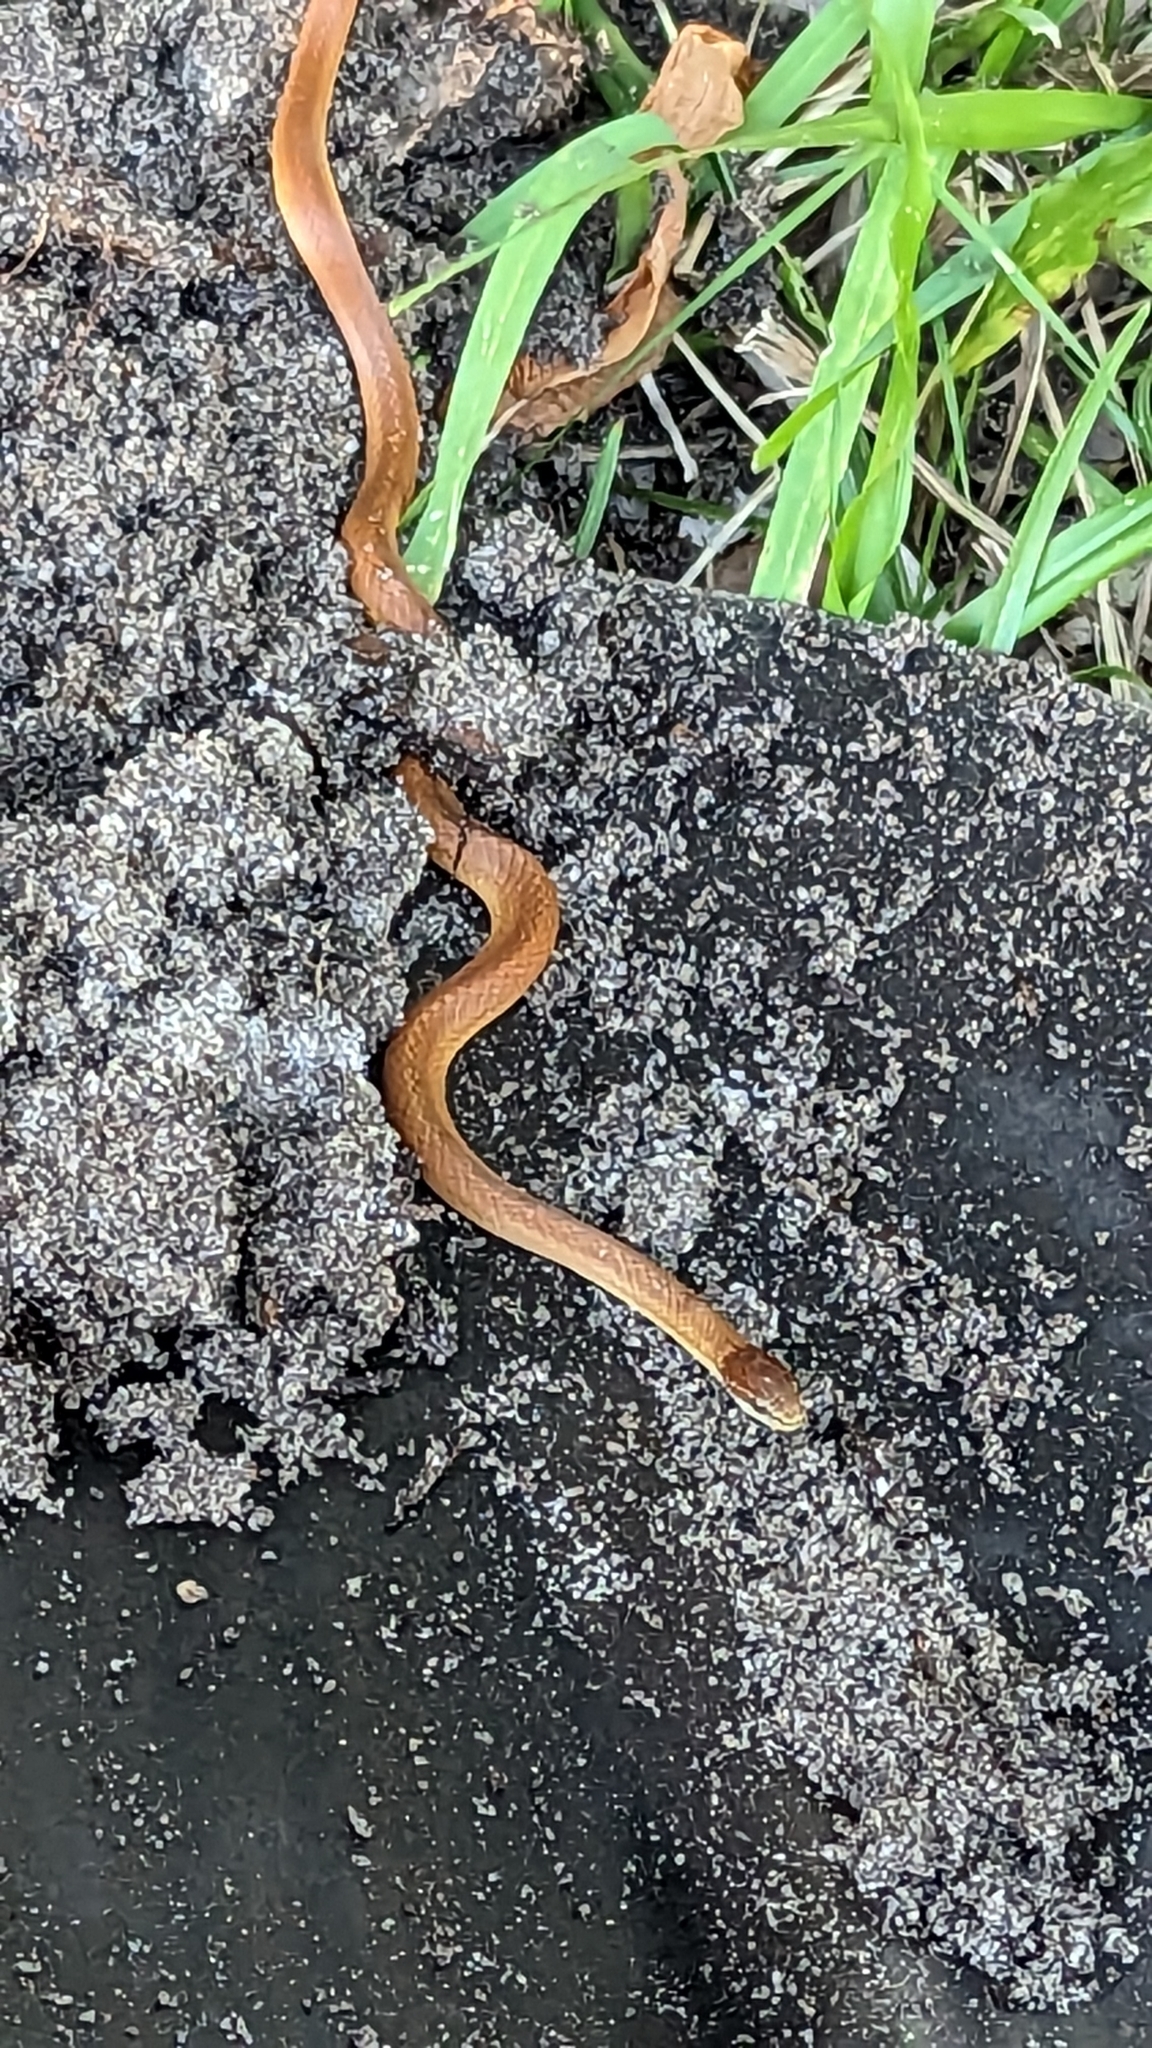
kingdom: Animalia
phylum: Chordata
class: Squamata
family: Colubridae
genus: Rhadinaea
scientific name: Rhadinaea flavilata
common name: Pine woods littersnake
